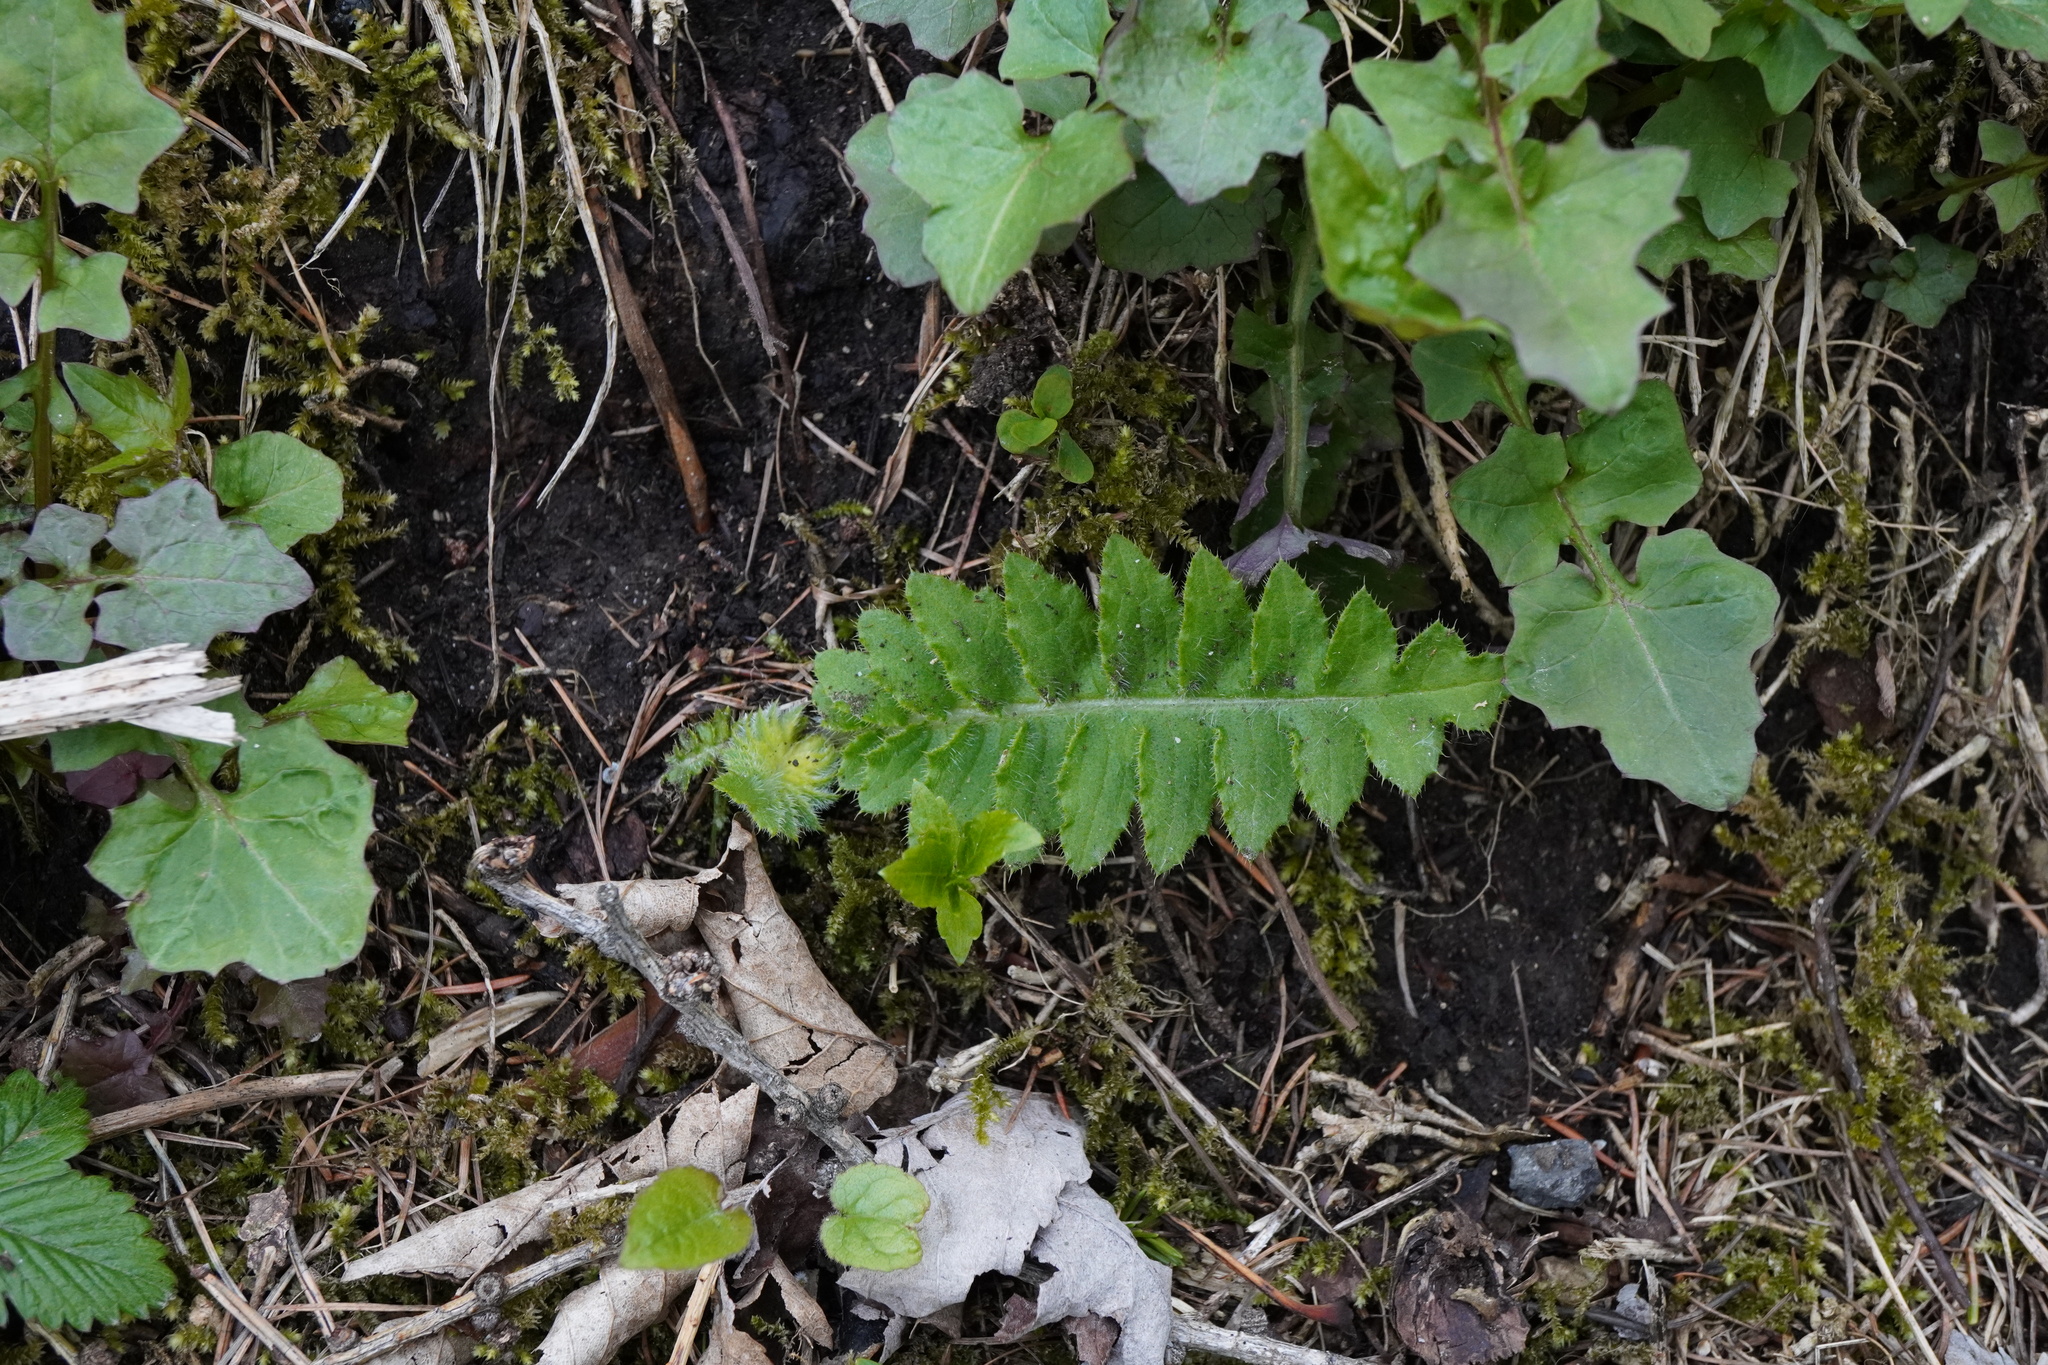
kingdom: Plantae
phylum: Tracheophyta
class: Magnoliopsida
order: Asterales
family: Asteraceae
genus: Cirsium
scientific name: Cirsium erisithales
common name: Yellow thistle
